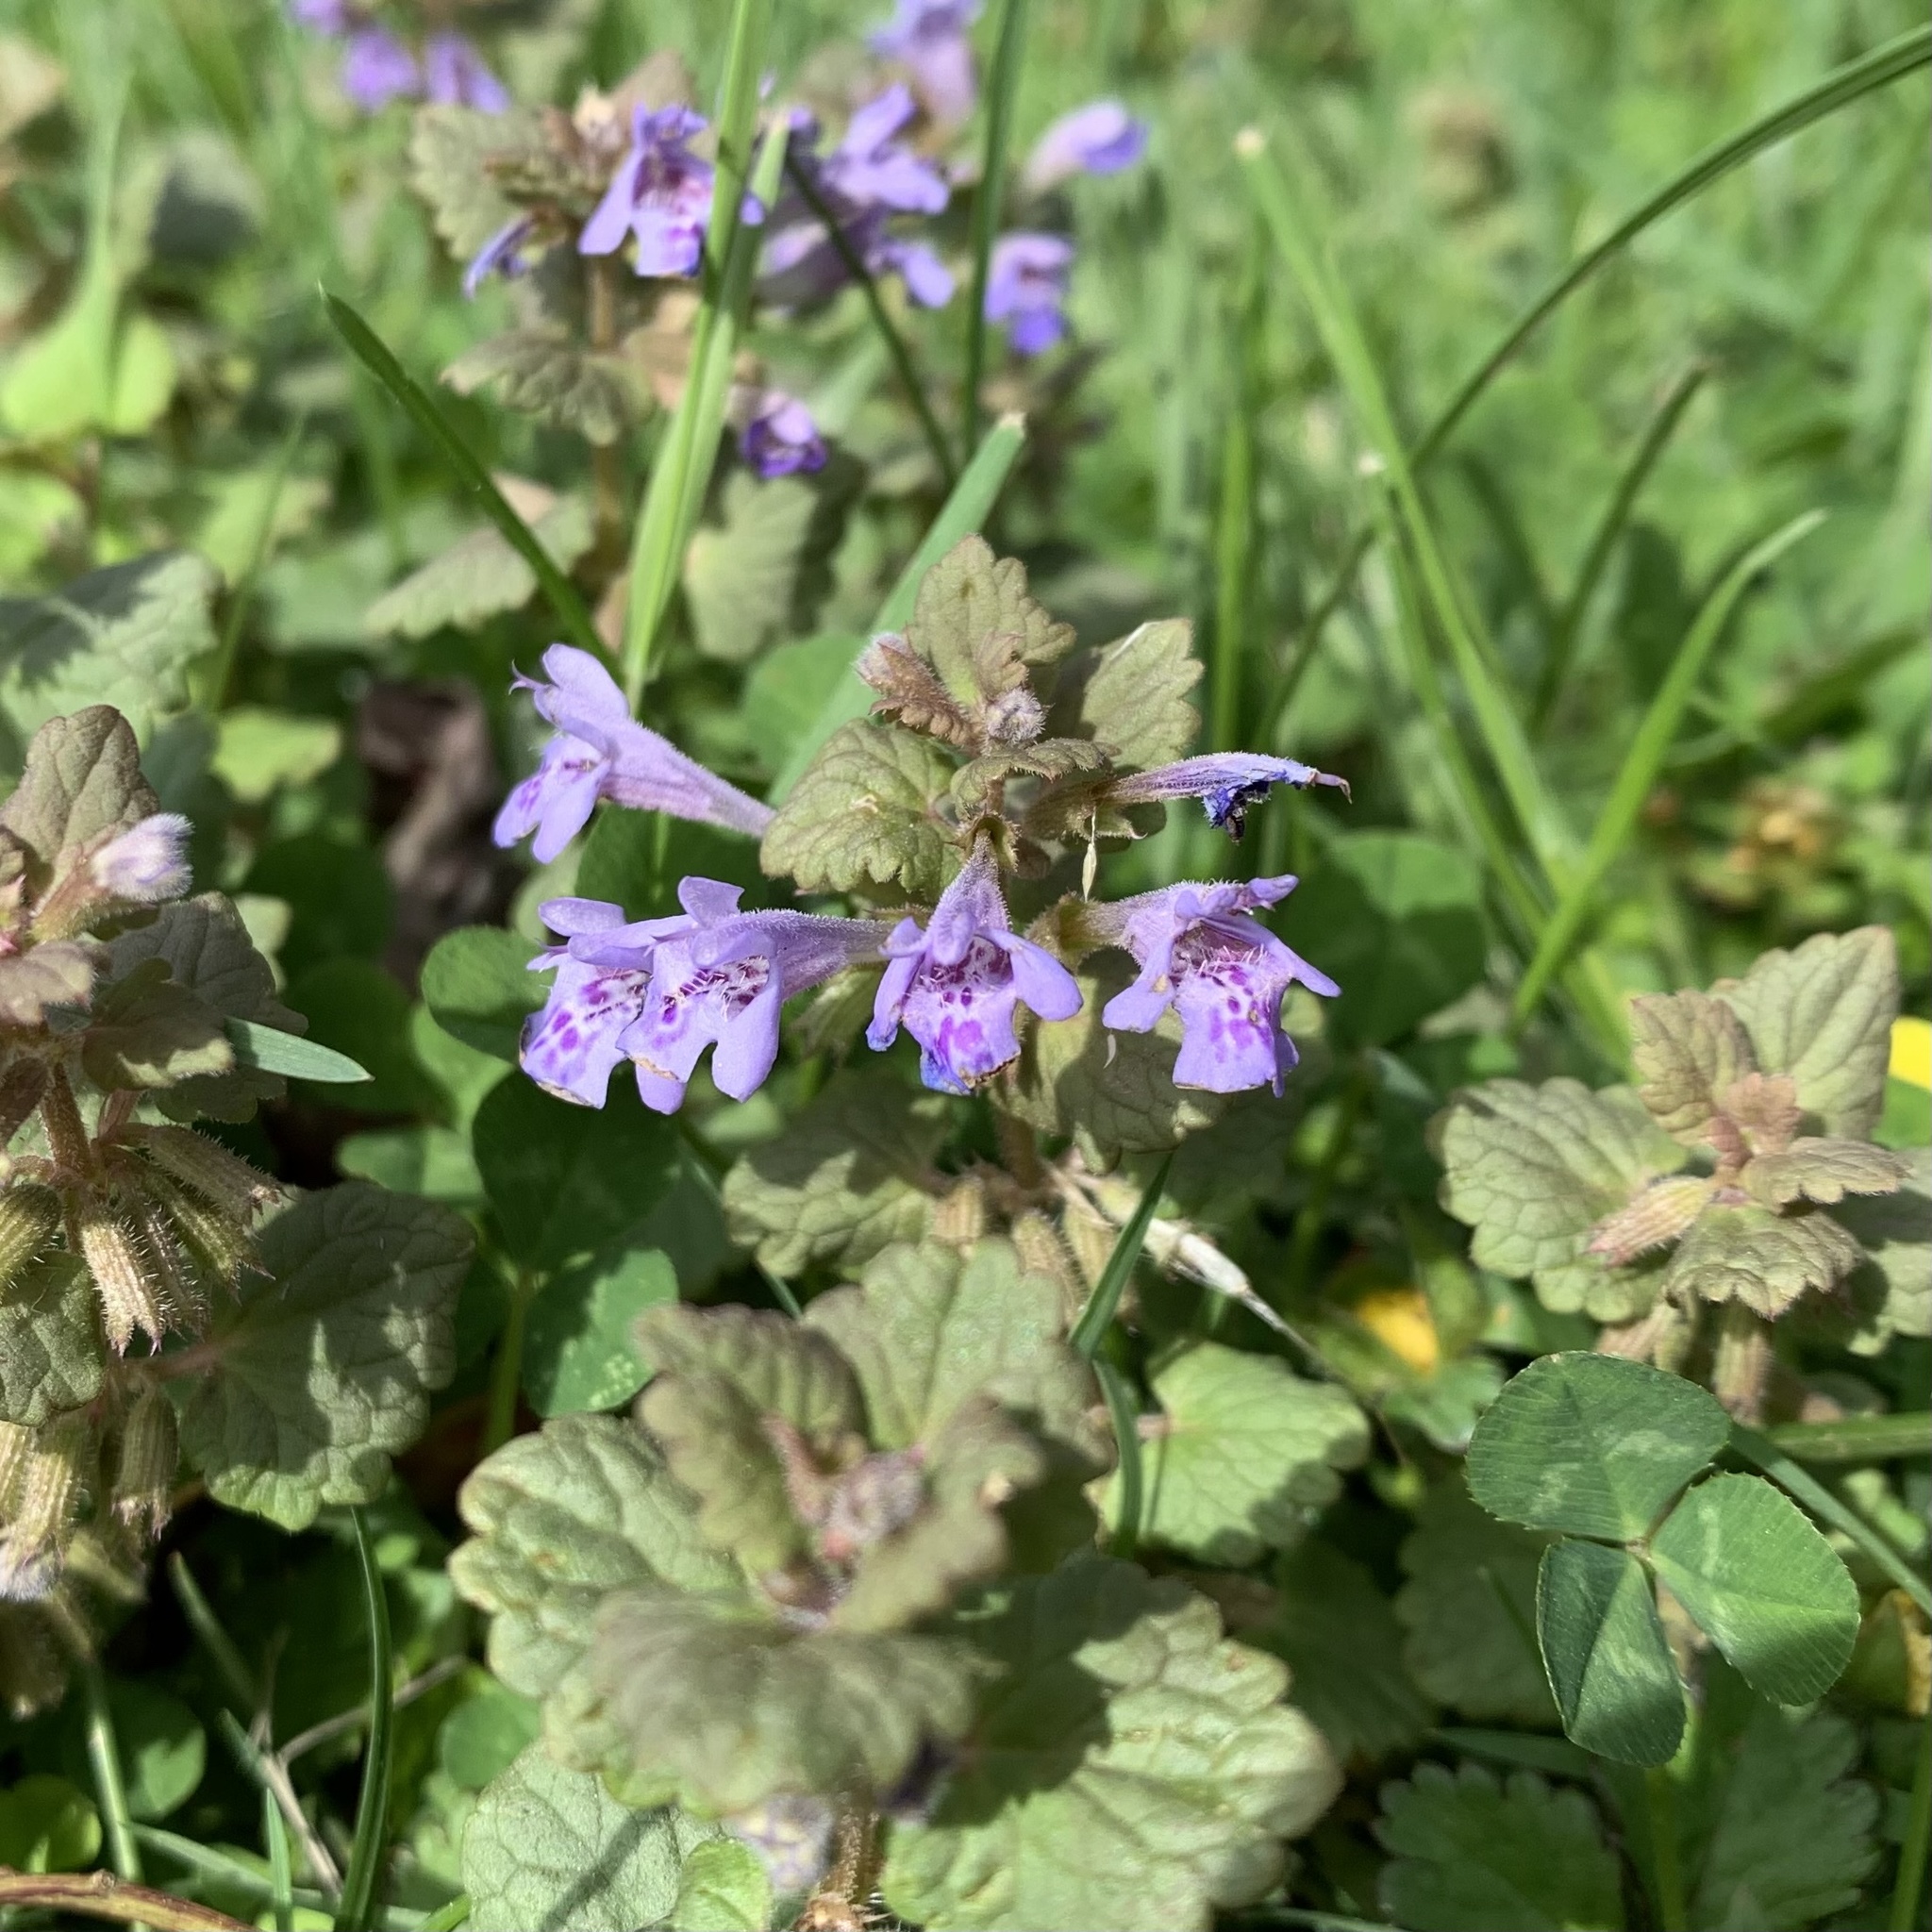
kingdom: Plantae
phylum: Tracheophyta
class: Magnoliopsida
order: Lamiales
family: Lamiaceae
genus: Glechoma
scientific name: Glechoma hederacea
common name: Ground ivy
